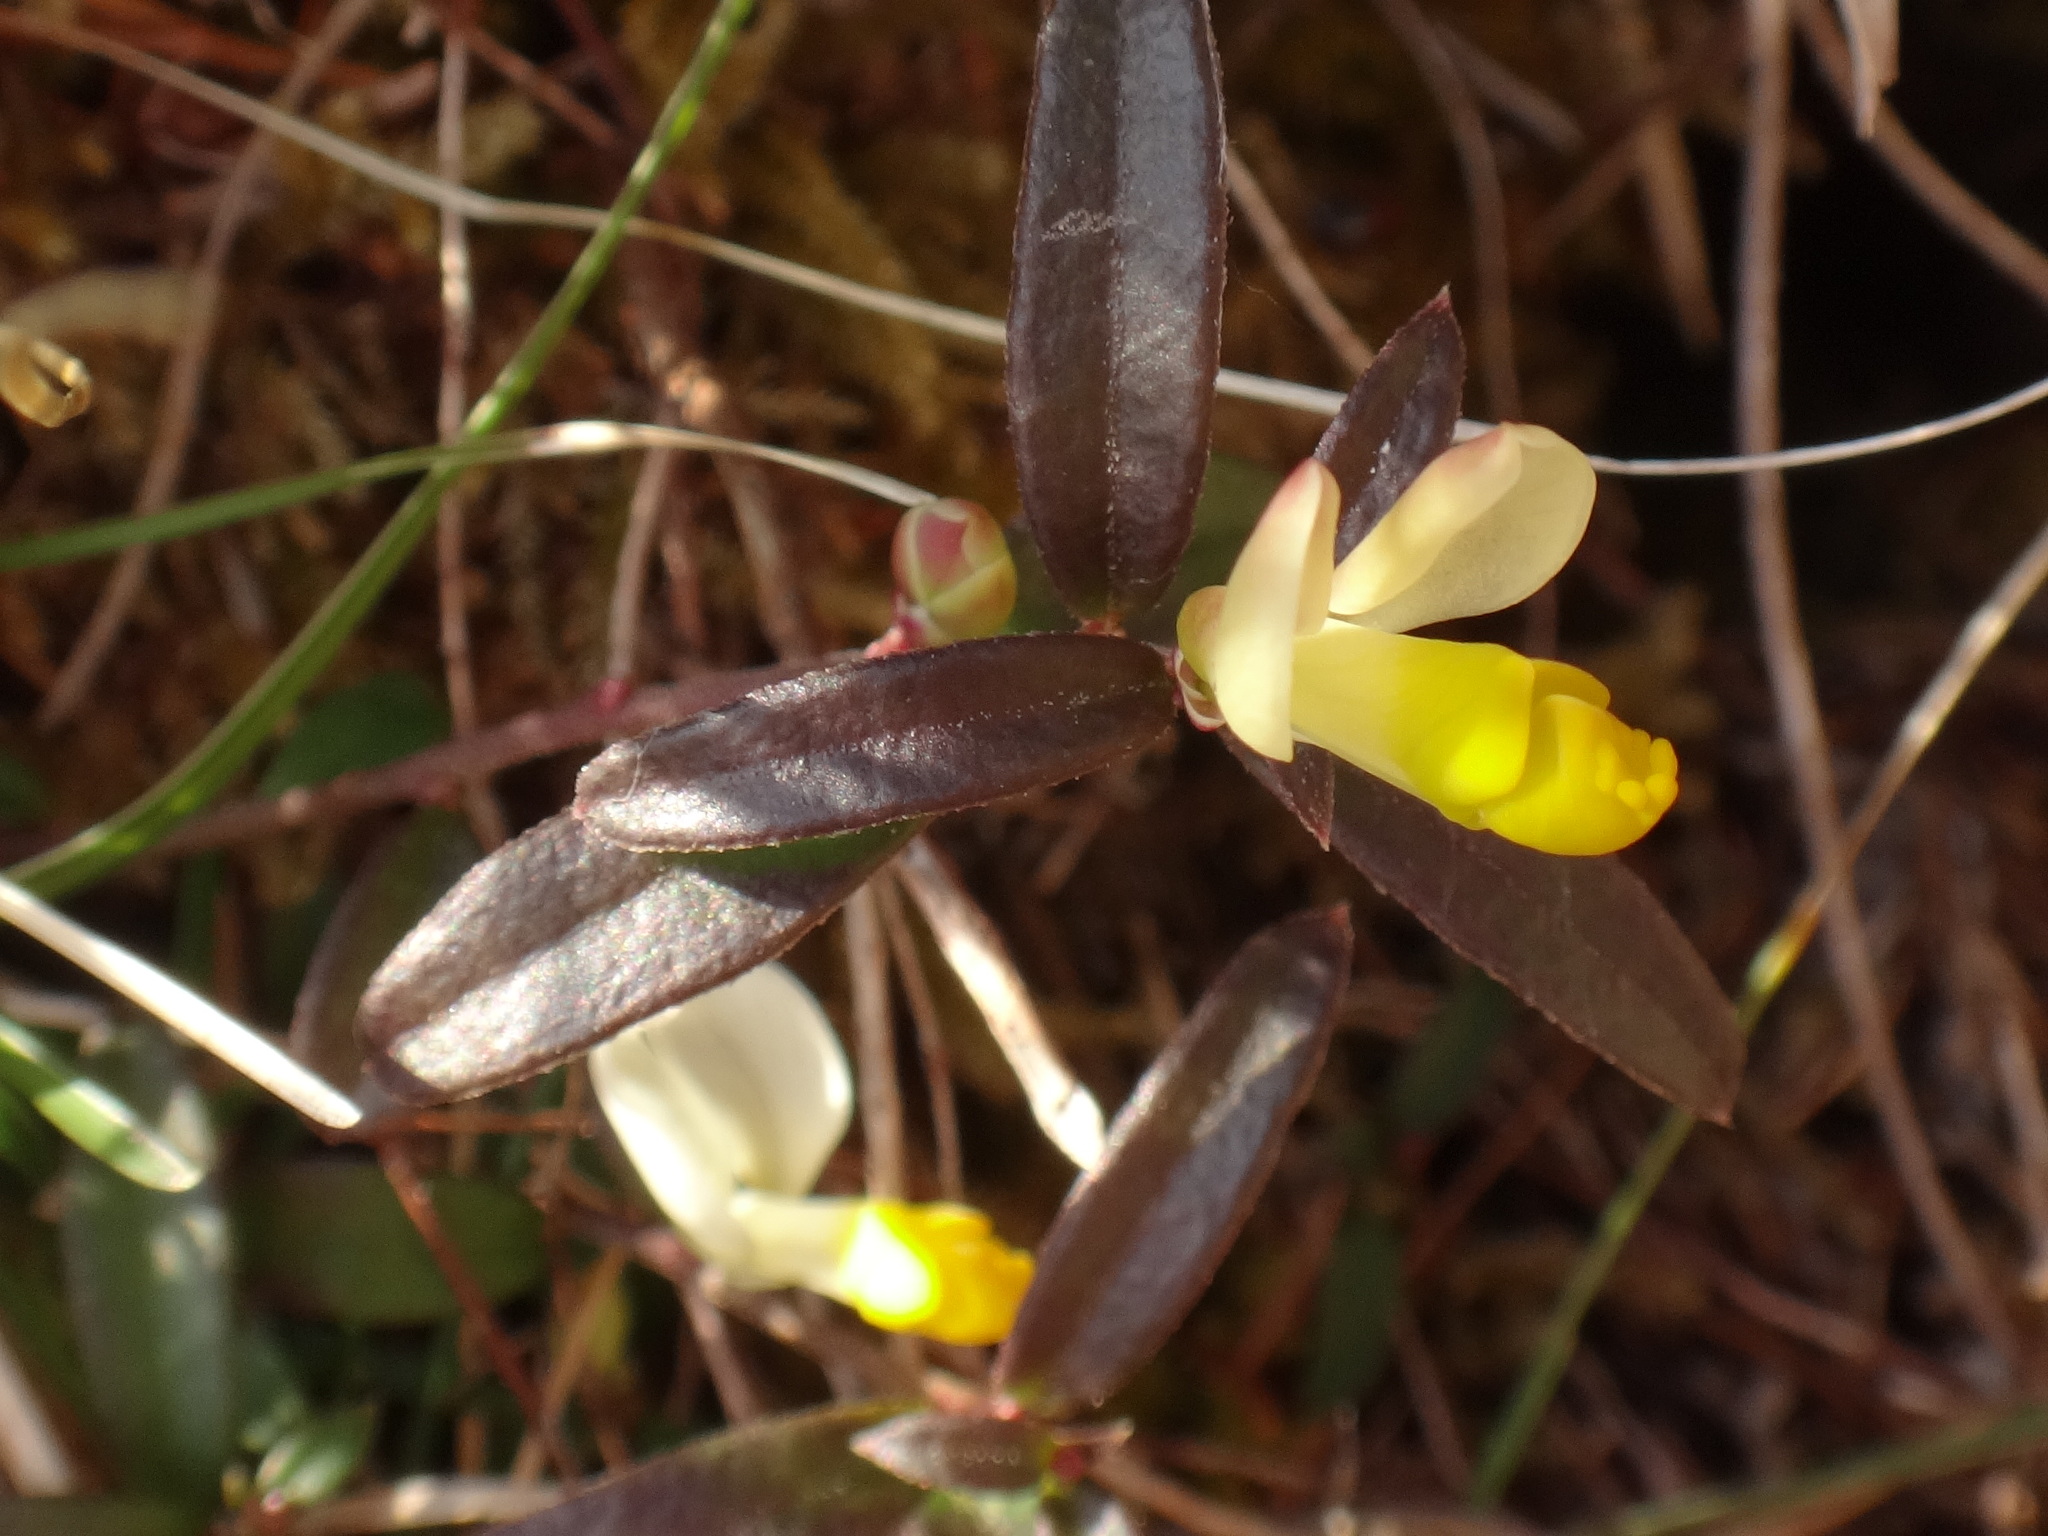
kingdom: Plantae
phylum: Tracheophyta
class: Magnoliopsida
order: Fabales
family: Polygalaceae
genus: Polygaloides
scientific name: Polygaloides chamaebuxus
